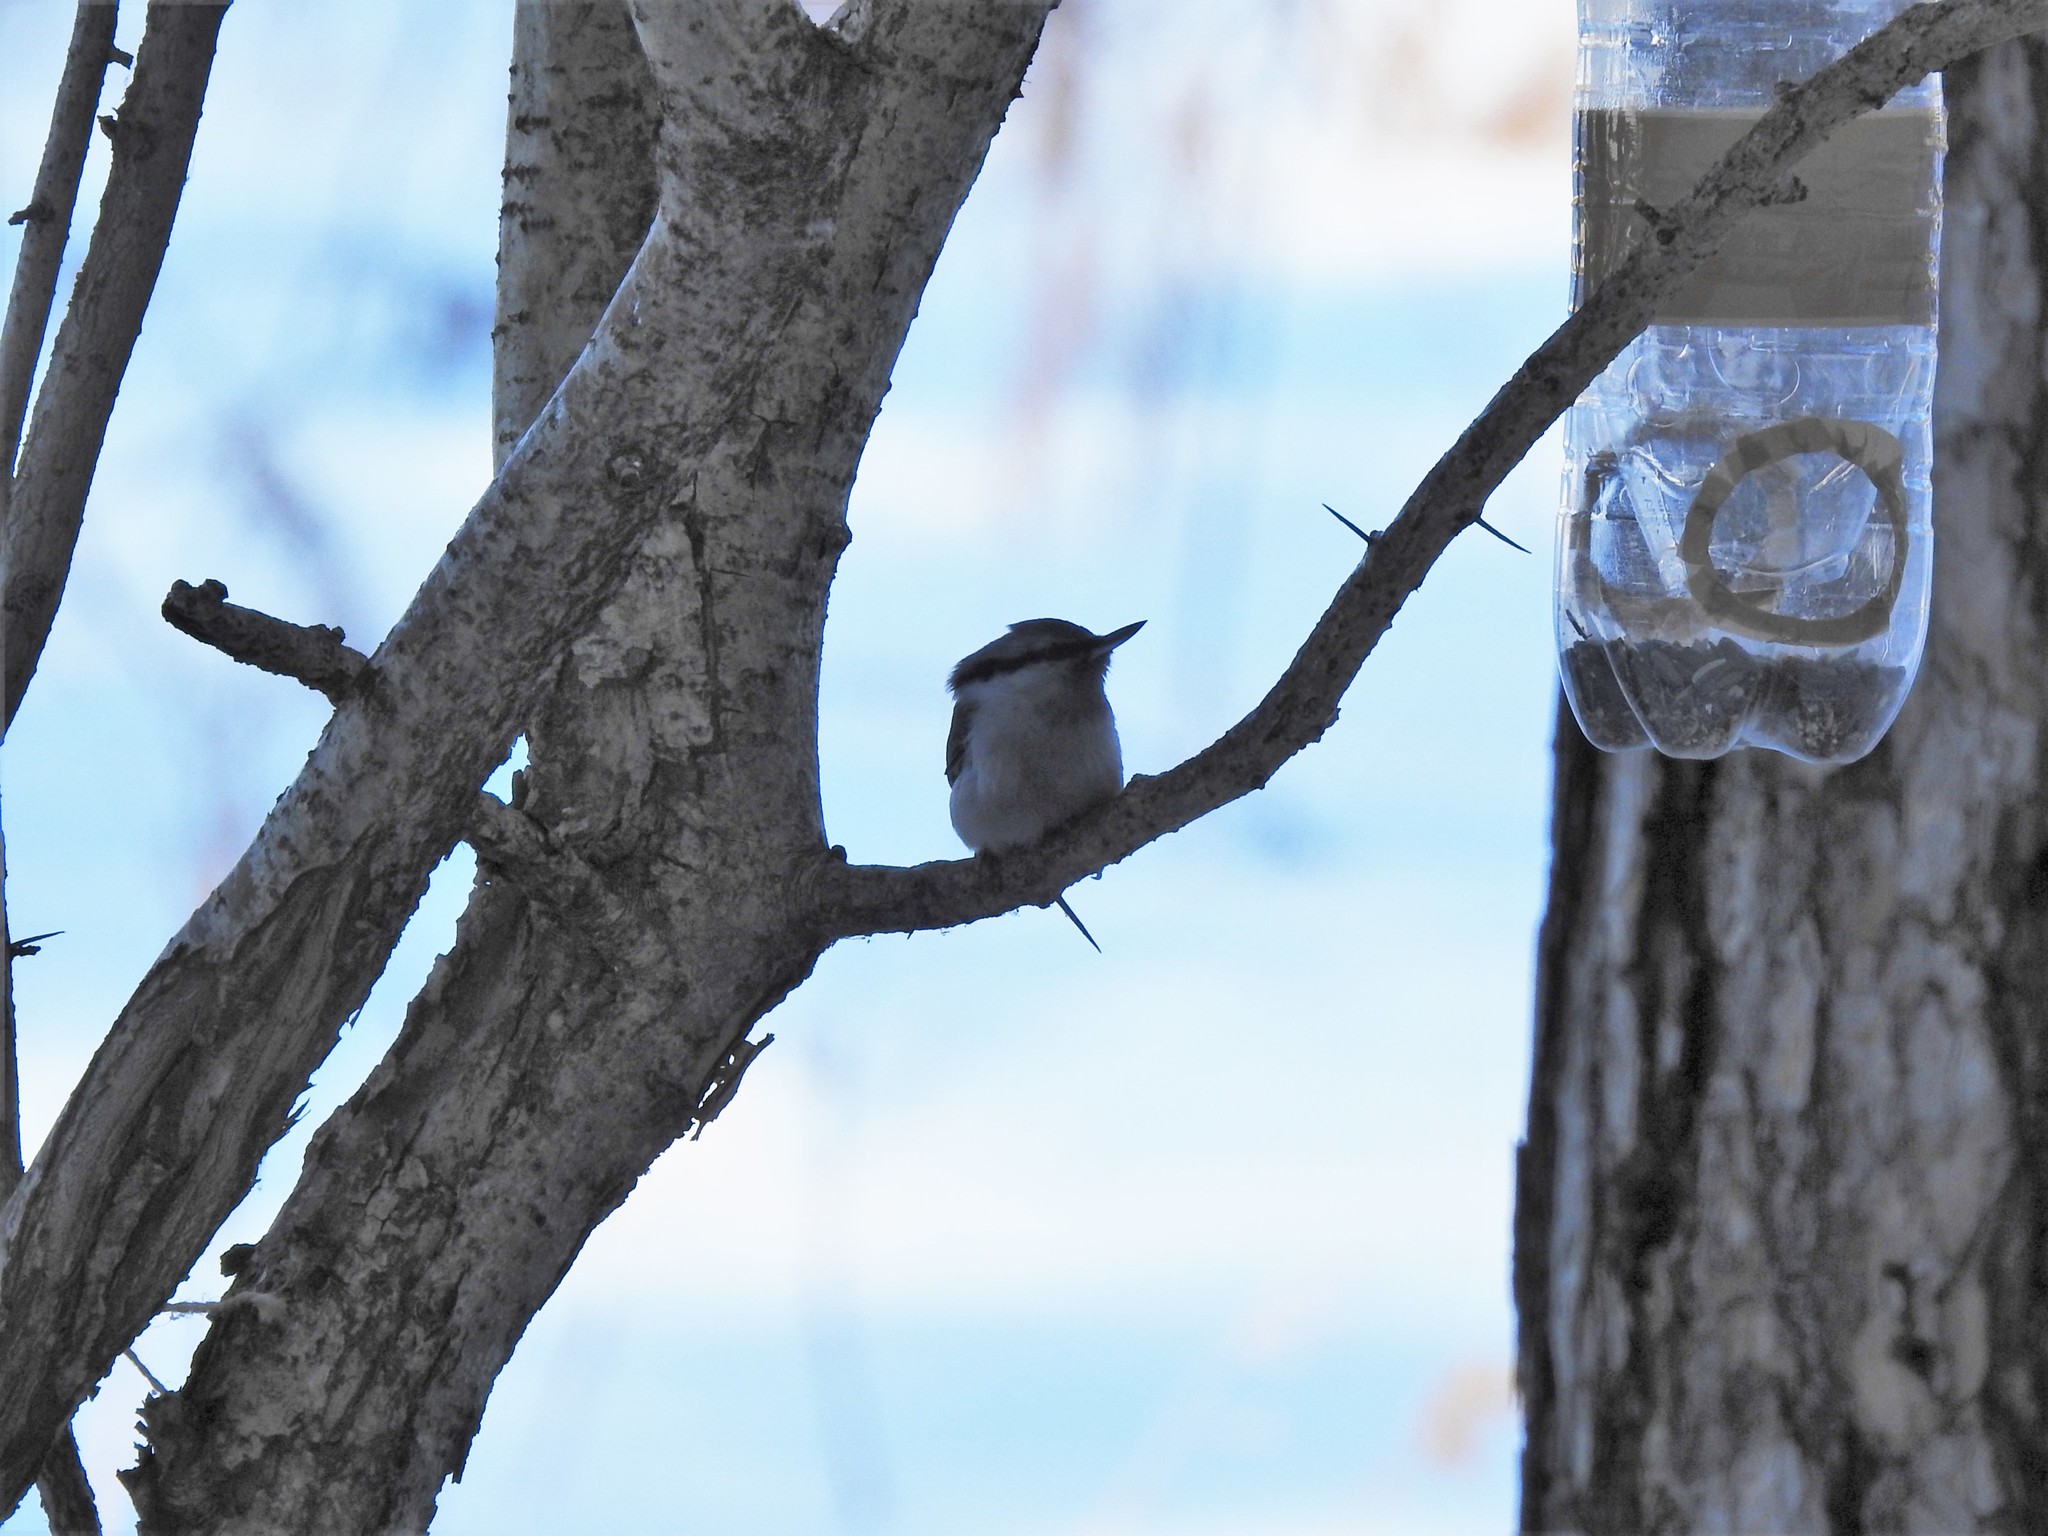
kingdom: Animalia
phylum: Chordata
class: Aves
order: Passeriformes
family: Sittidae
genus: Sitta
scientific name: Sitta europaea
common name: Eurasian nuthatch
